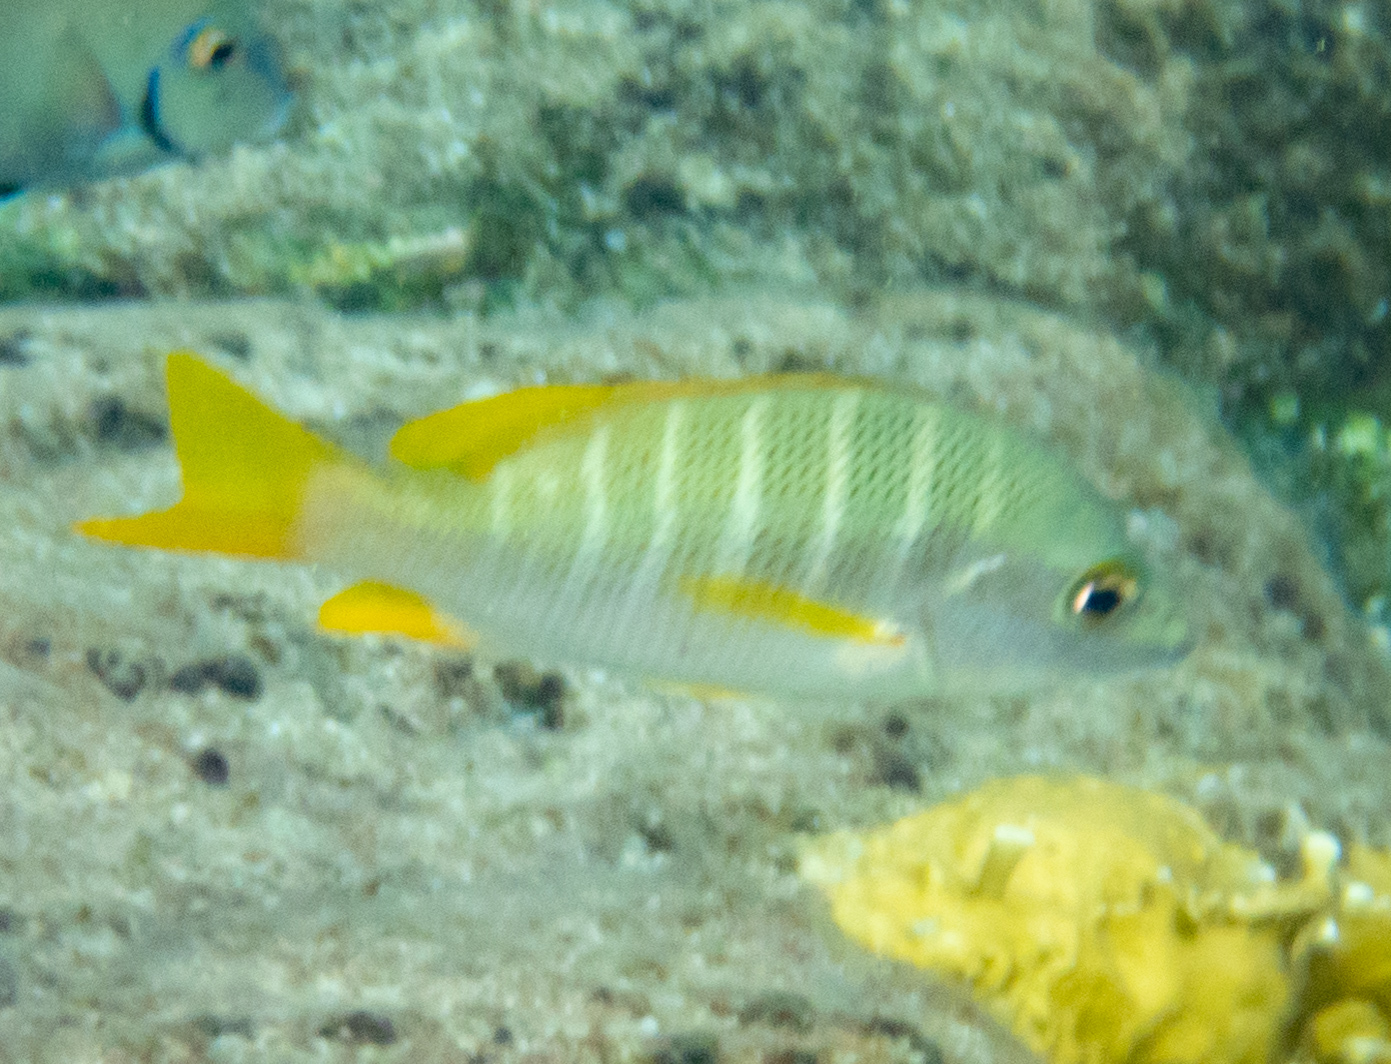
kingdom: Animalia
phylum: Chordata
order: Perciformes
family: Lutjanidae
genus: Lutjanus
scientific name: Lutjanus apodus
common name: Schoolmaster
